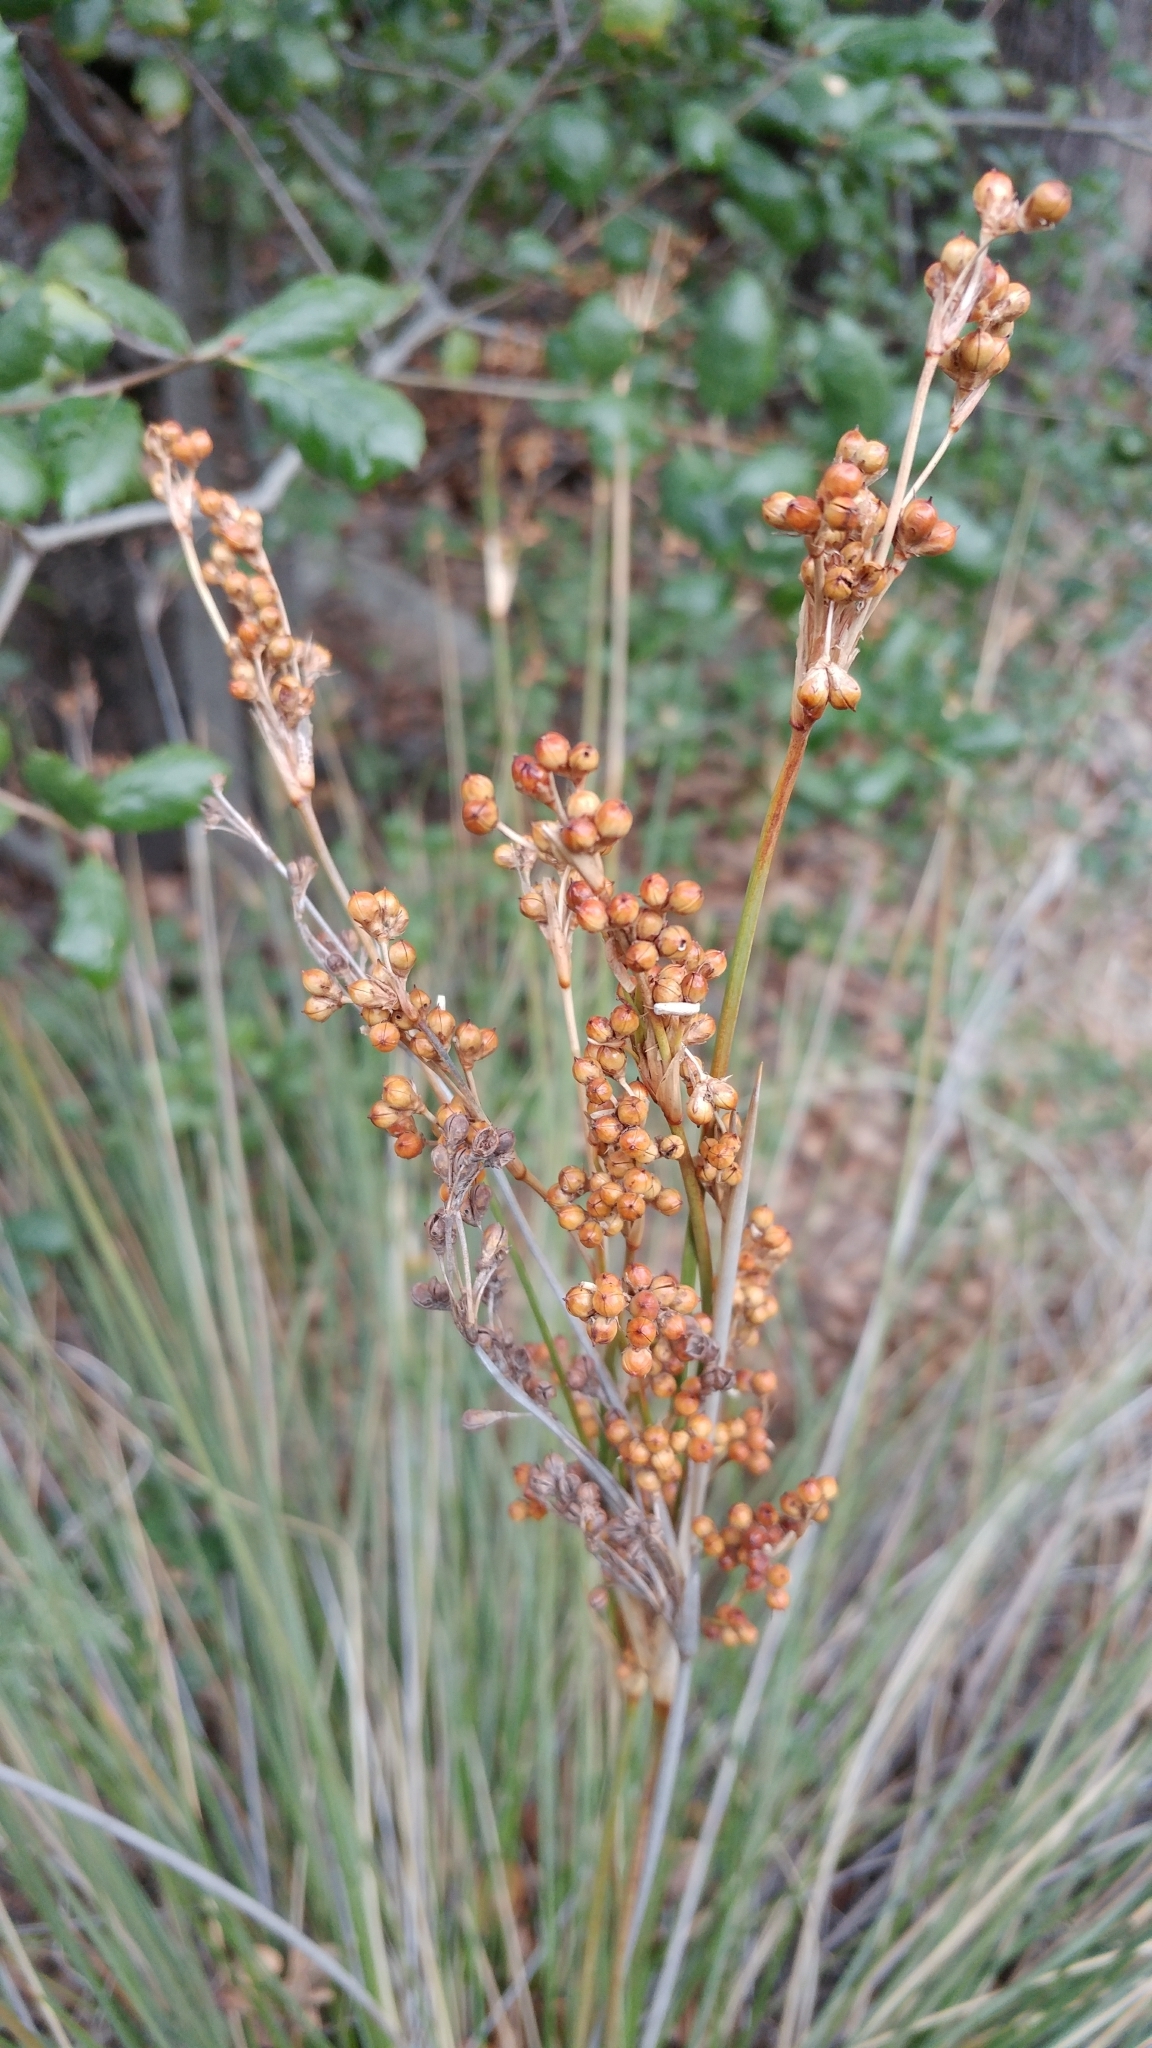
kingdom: Plantae
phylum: Tracheophyta
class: Liliopsida
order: Poales
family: Juncaceae
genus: Juncus
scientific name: Juncus acutus
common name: Sharp rush
